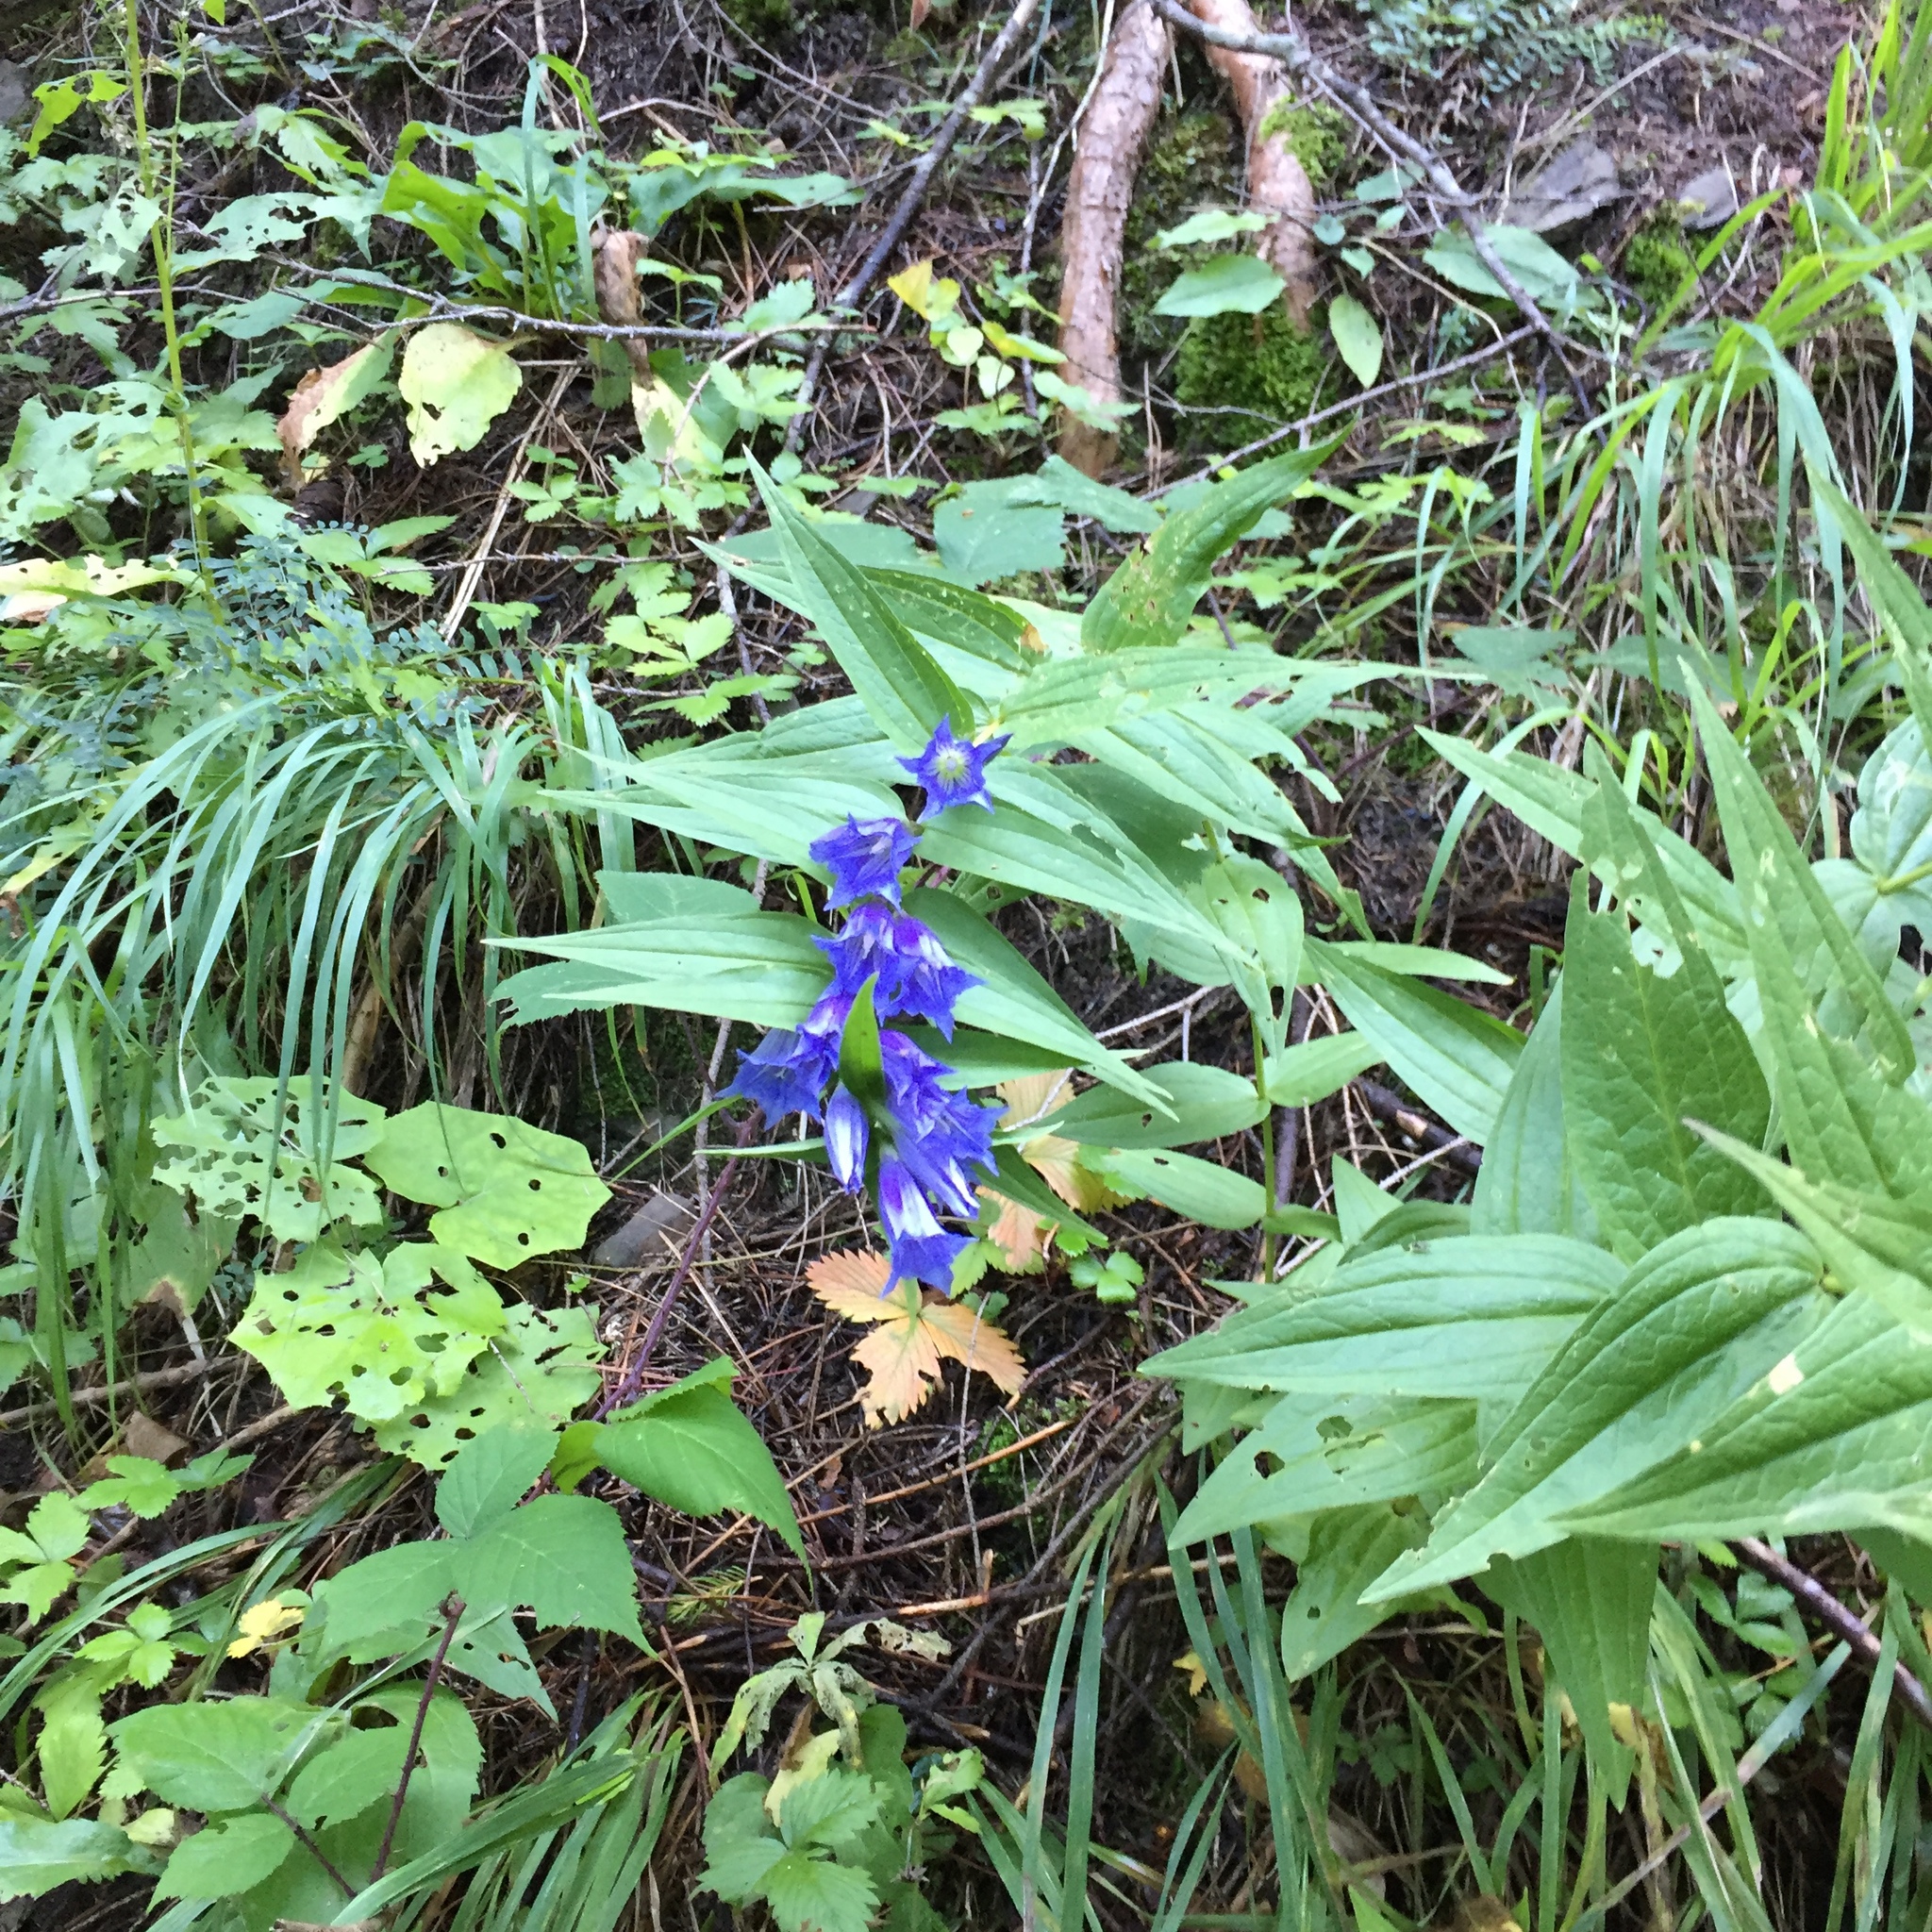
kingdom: Plantae
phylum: Tracheophyta
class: Magnoliopsida
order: Gentianales
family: Gentianaceae
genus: Gentiana
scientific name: Gentiana asclepiadea
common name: Willow gentian
